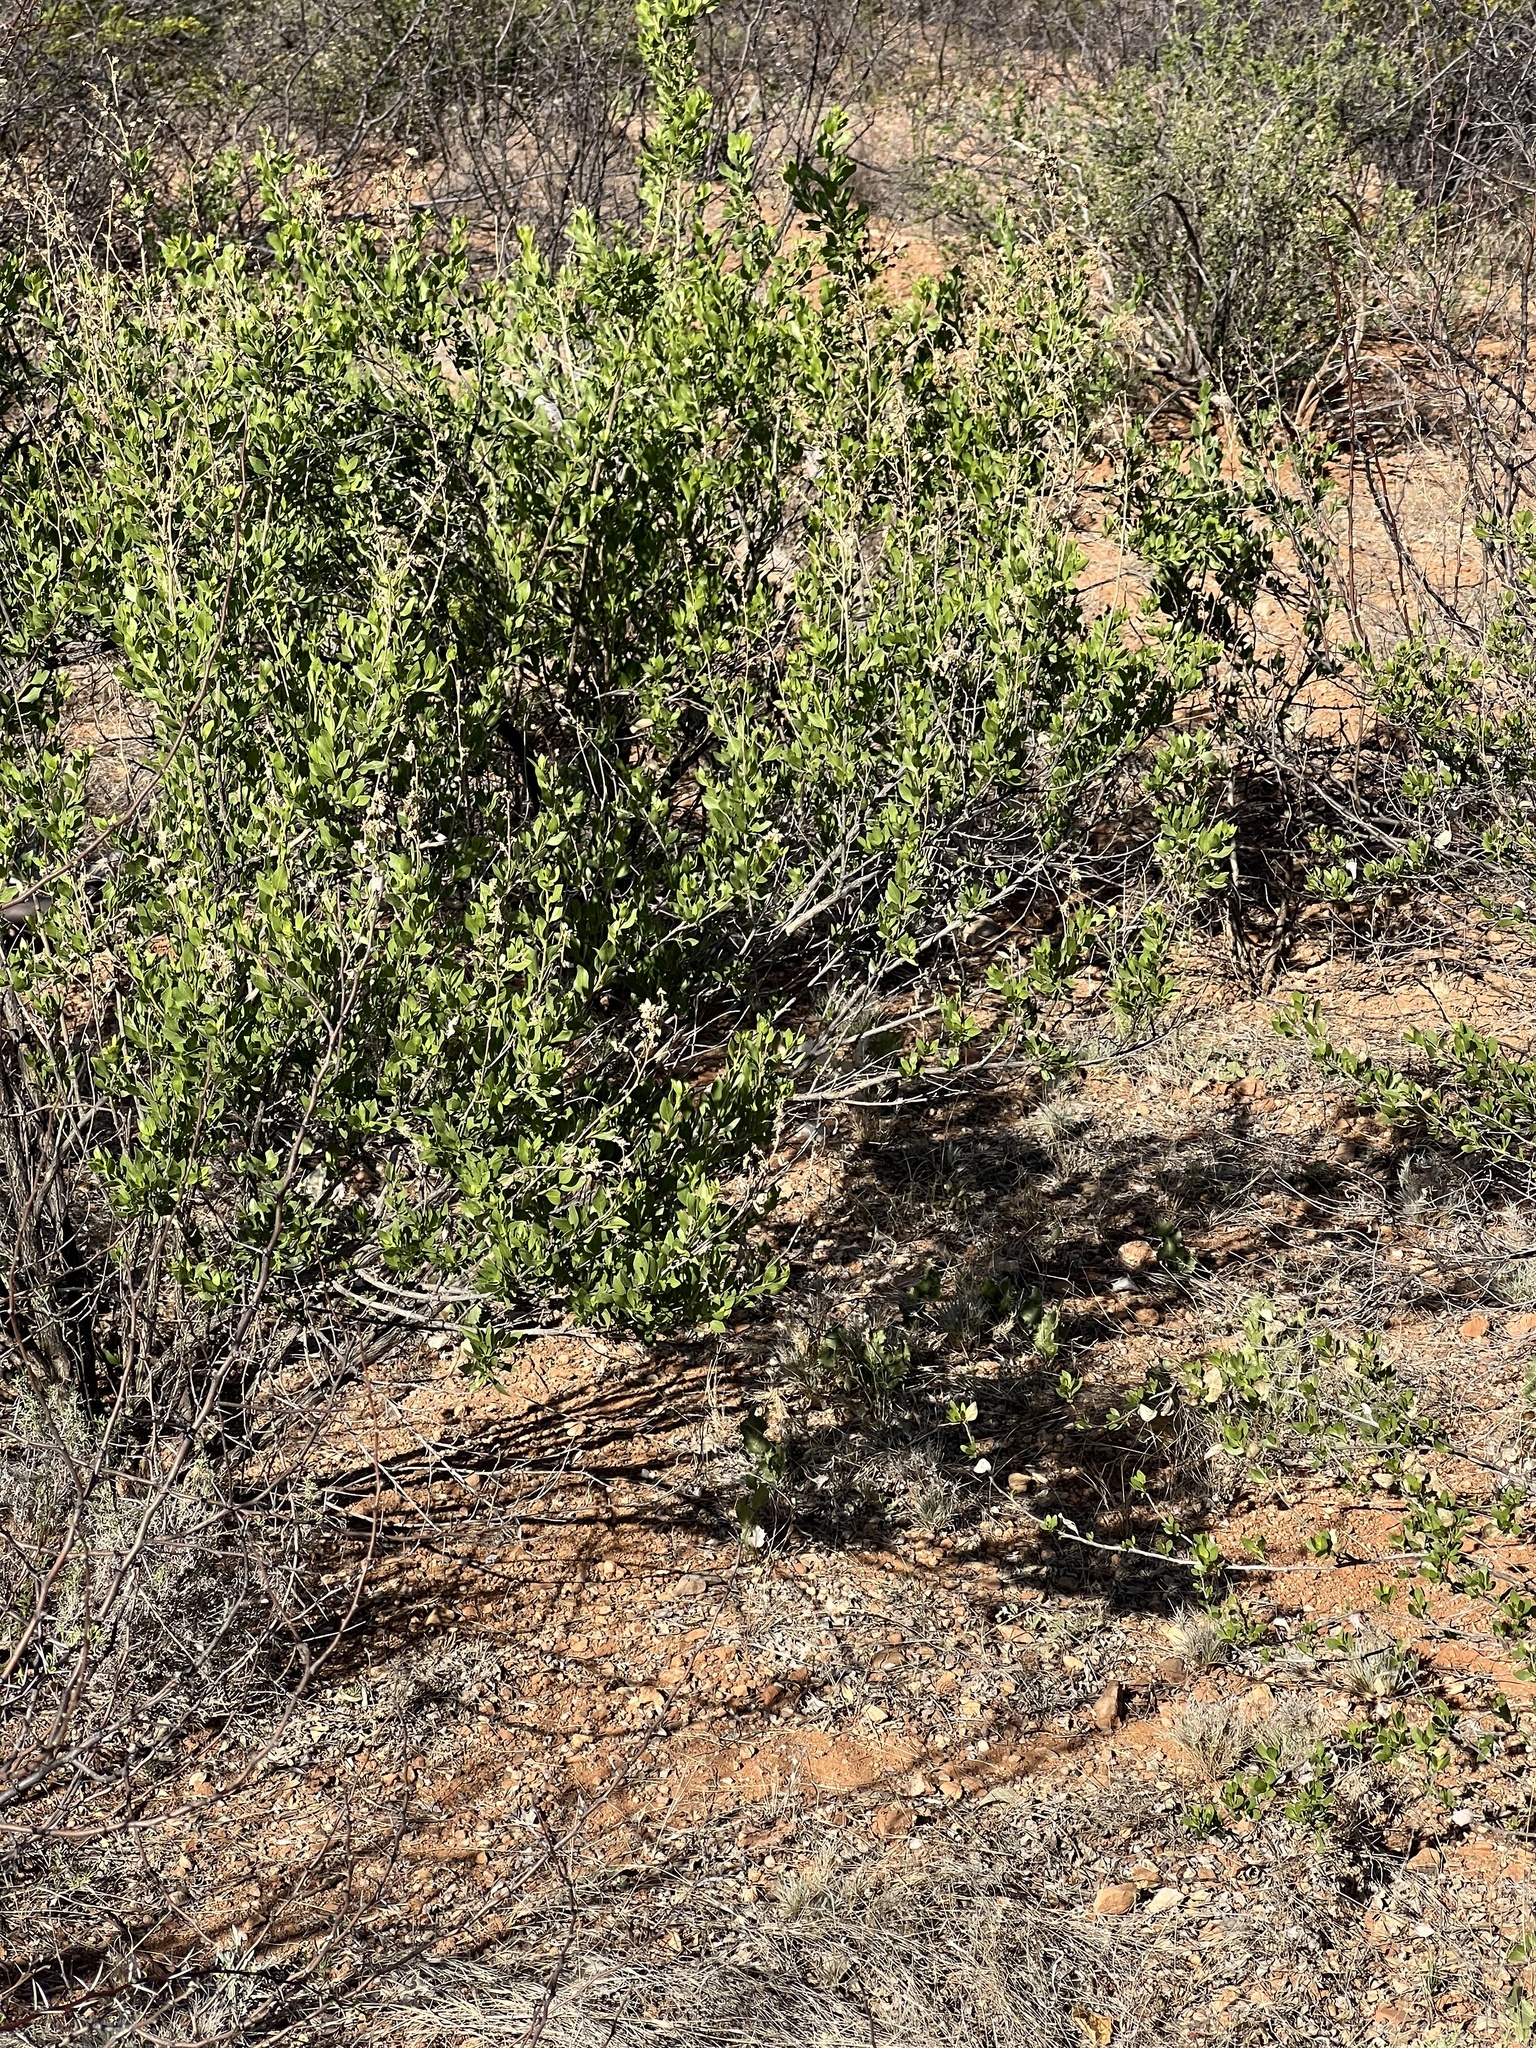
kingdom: Plantae
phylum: Tracheophyta
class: Magnoliopsida
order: Asterales
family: Asteraceae
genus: Flourensia
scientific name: Flourensia cernua
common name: Varnishbush
